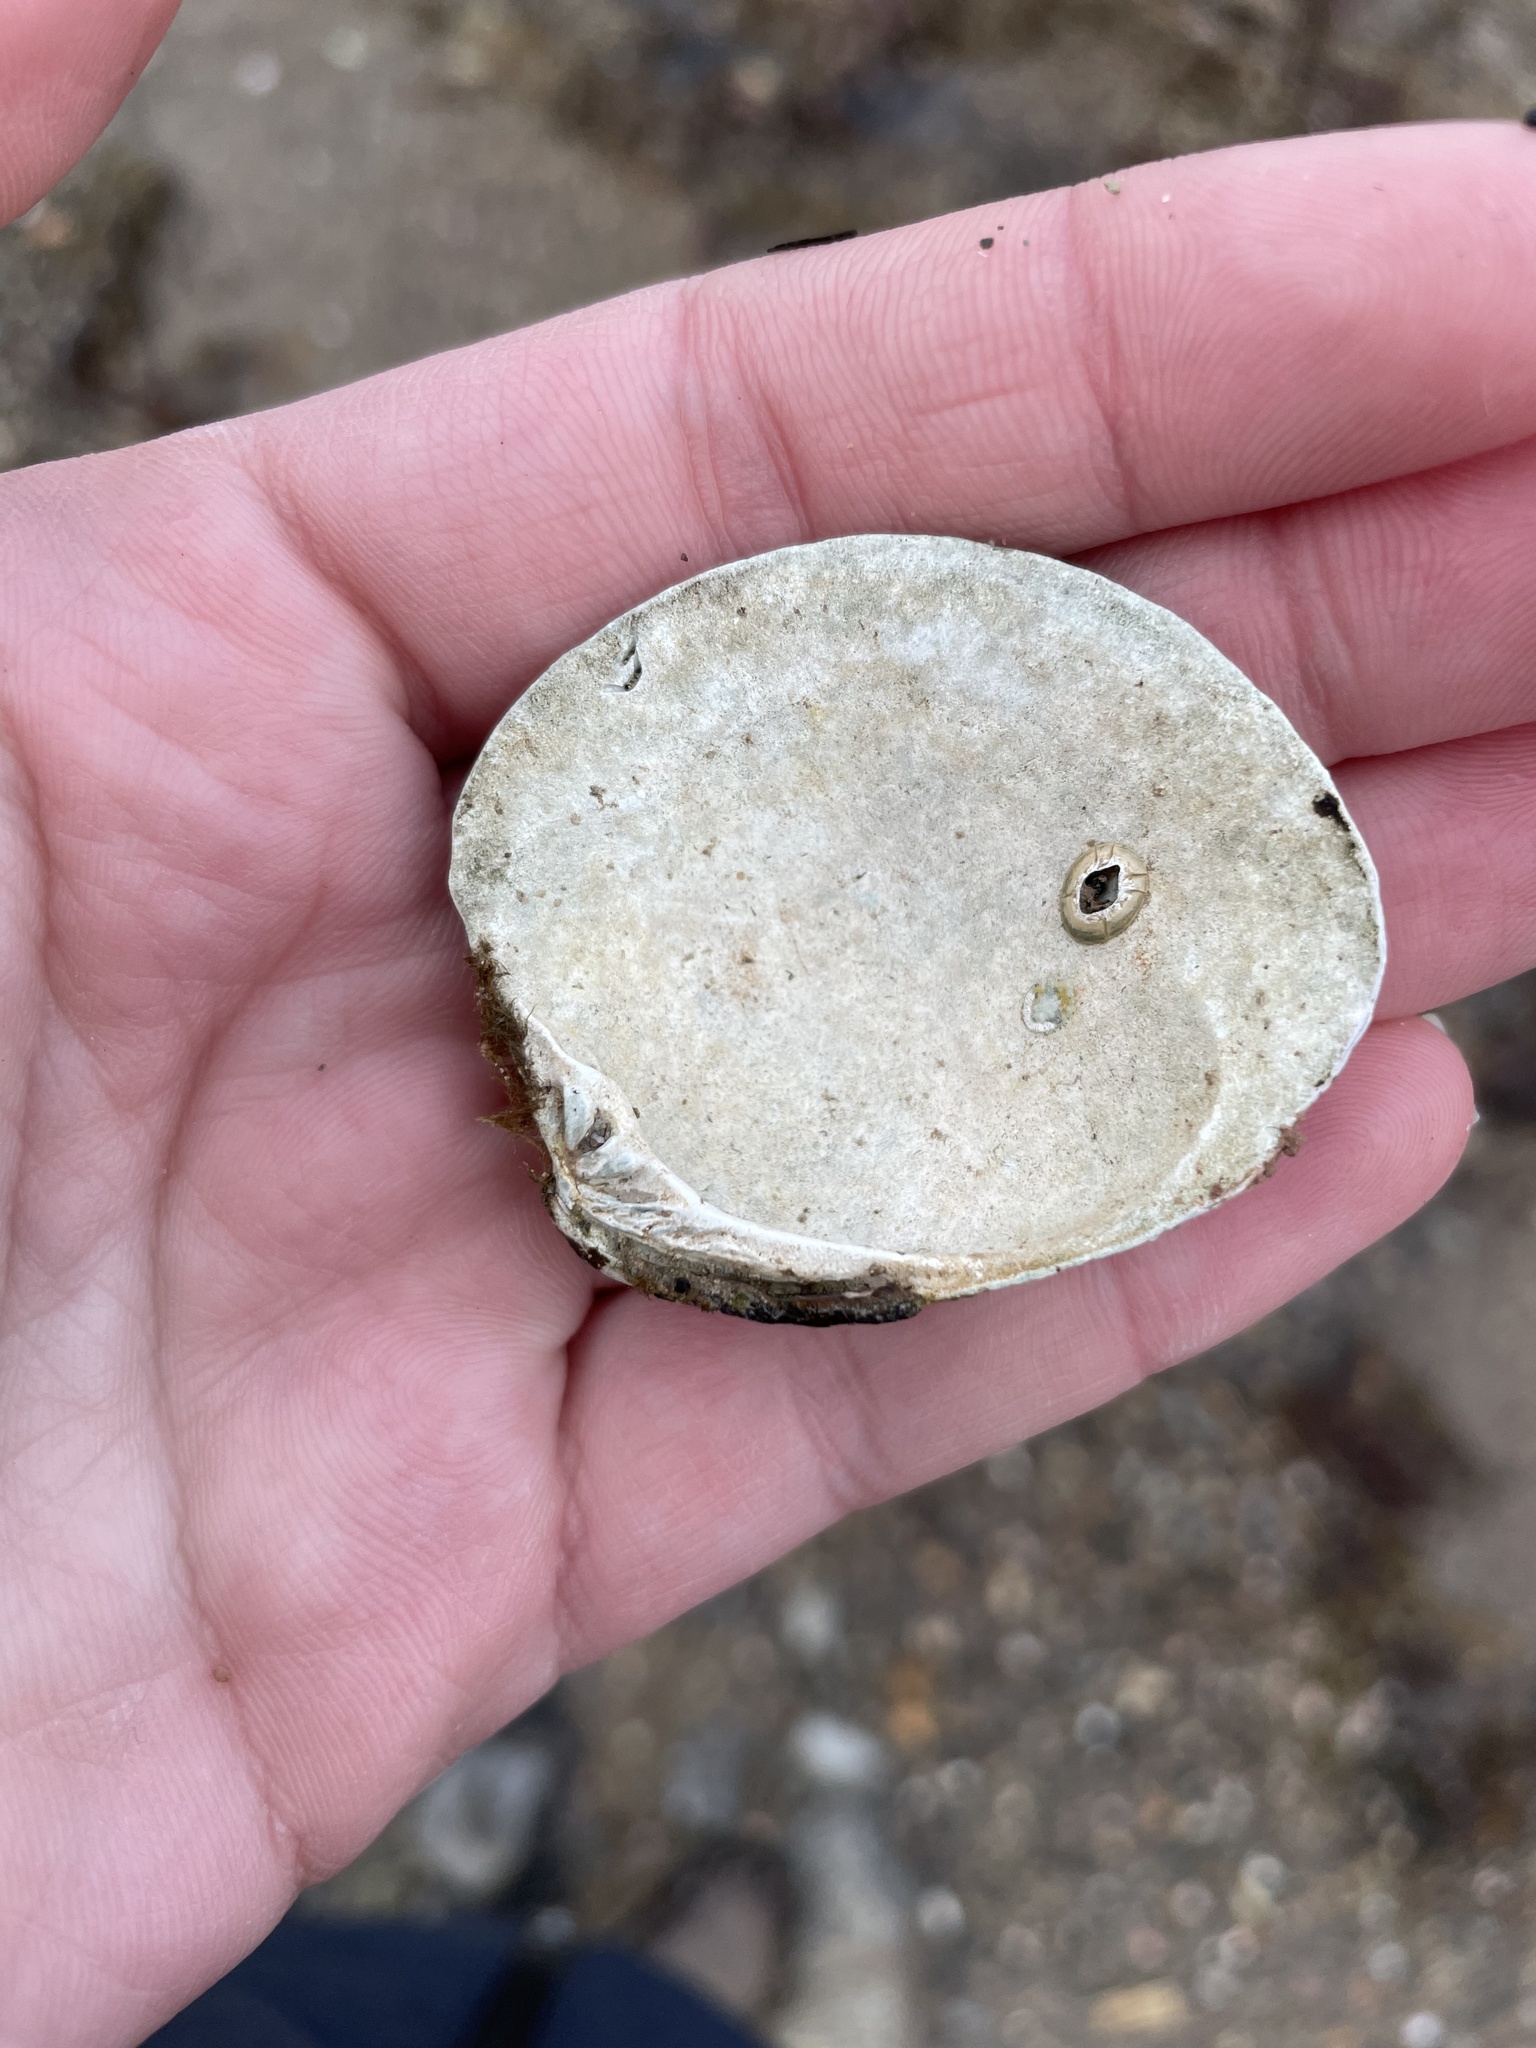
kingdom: Animalia
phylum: Mollusca
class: Bivalvia
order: Venerida
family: Veneridae
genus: Mercenaria
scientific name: Mercenaria mercenaria
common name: American hard-shelled clam
